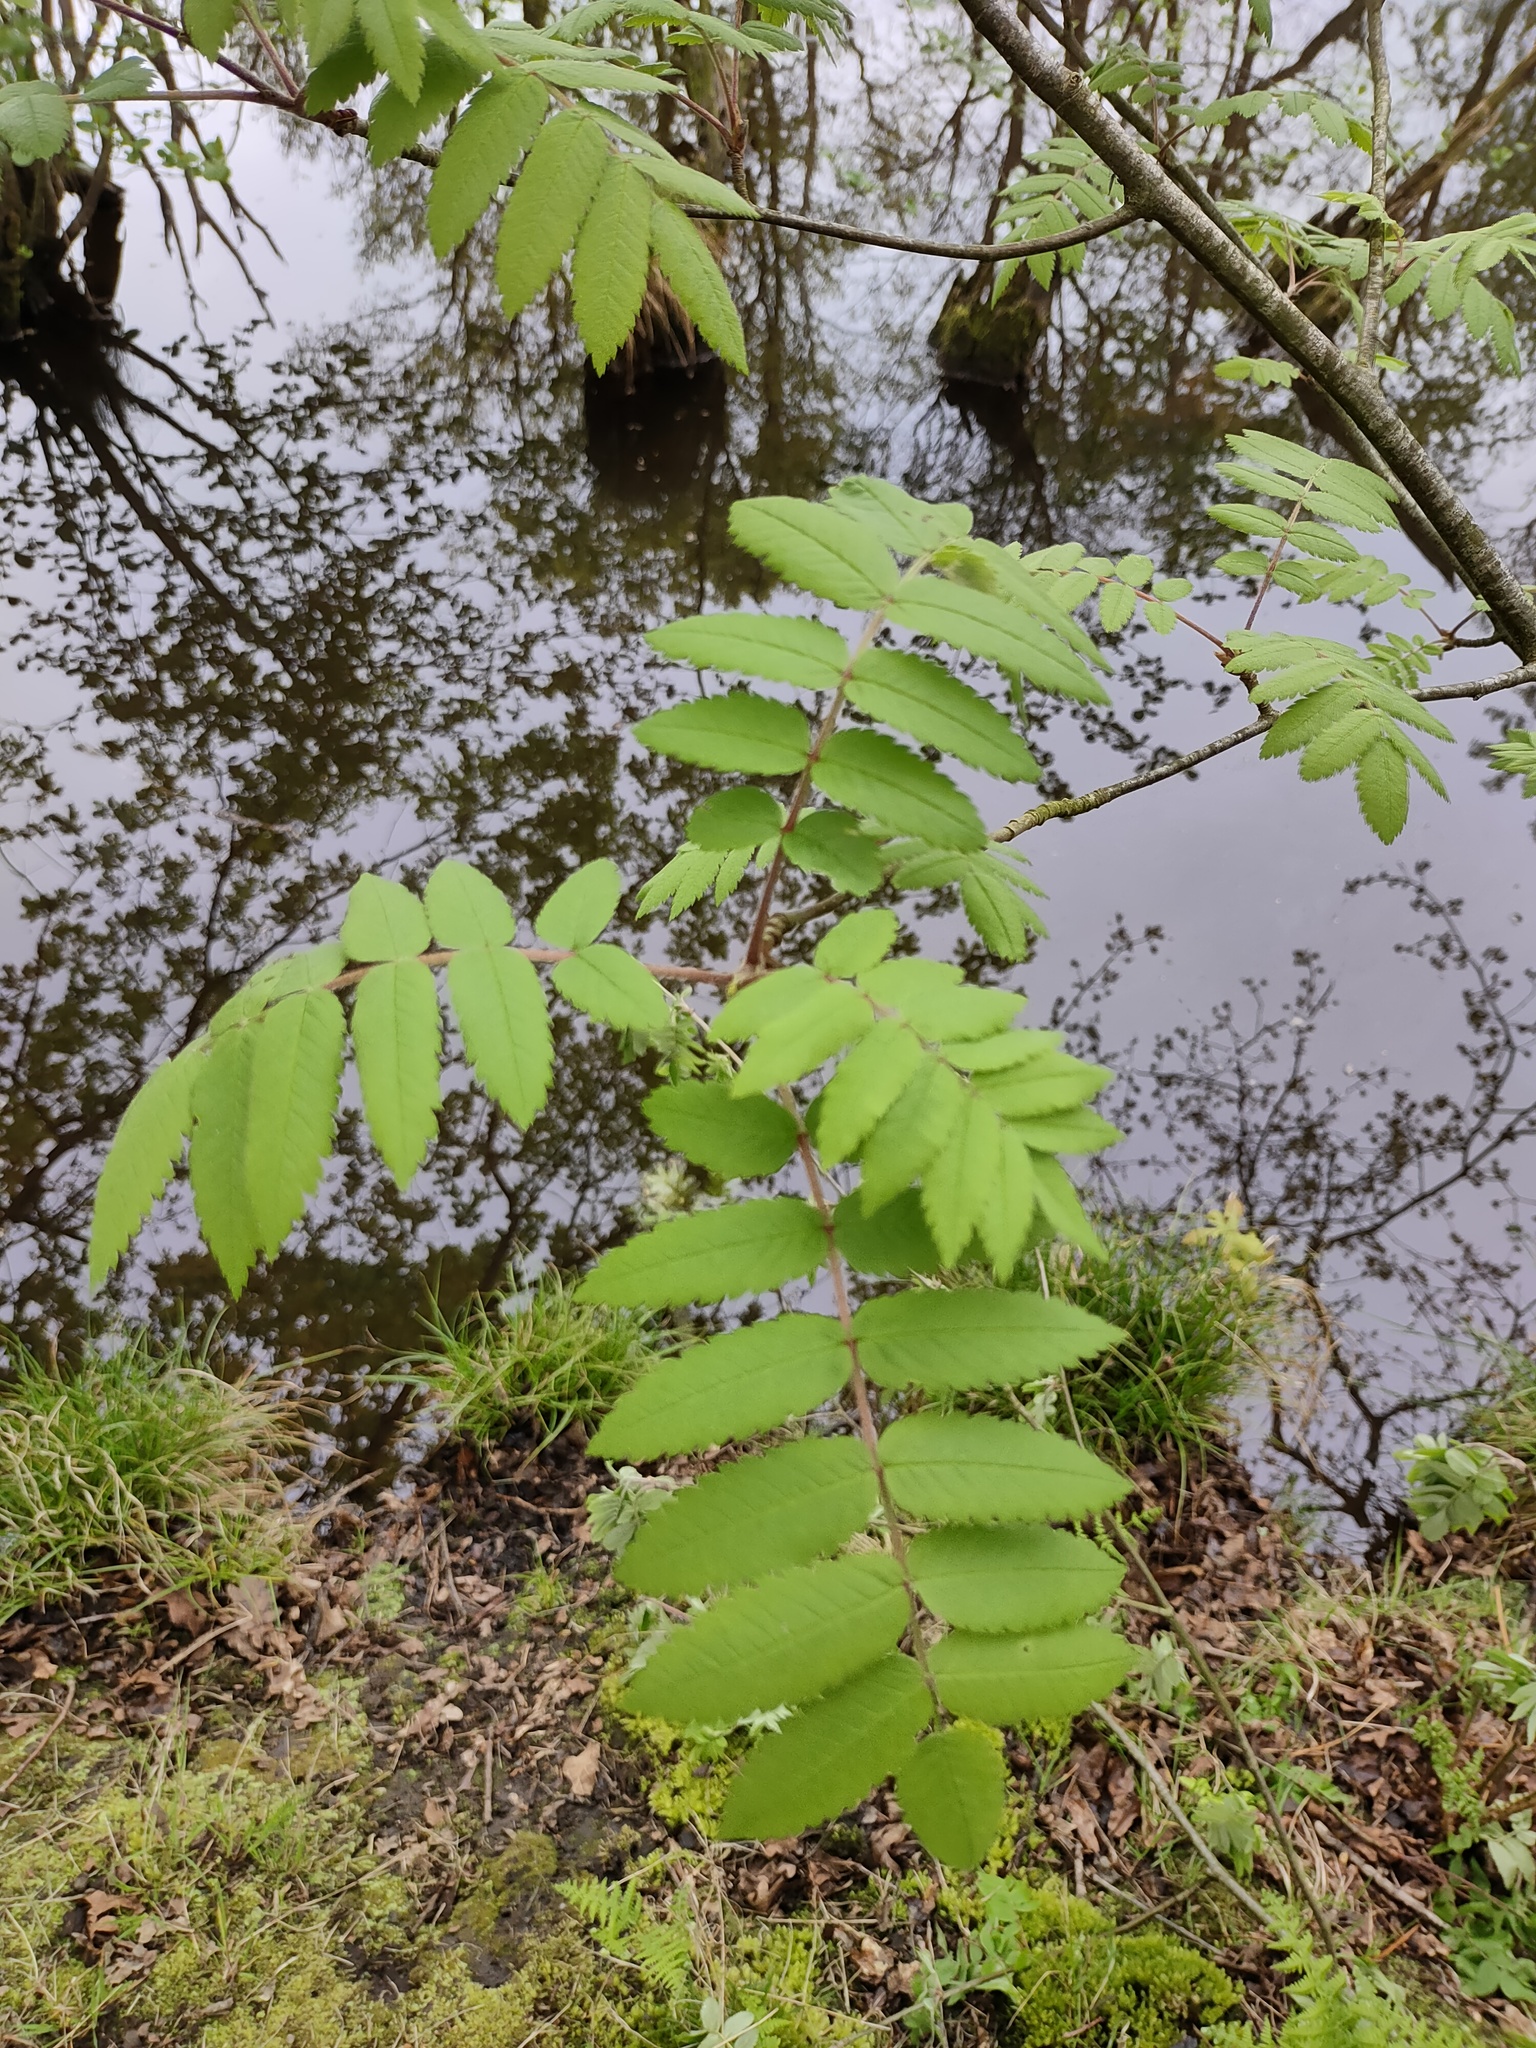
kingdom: Plantae
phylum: Tracheophyta
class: Magnoliopsida
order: Rosales
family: Rosaceae
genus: Sorbus
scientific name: Sorbus aucuparia
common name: Rowan
